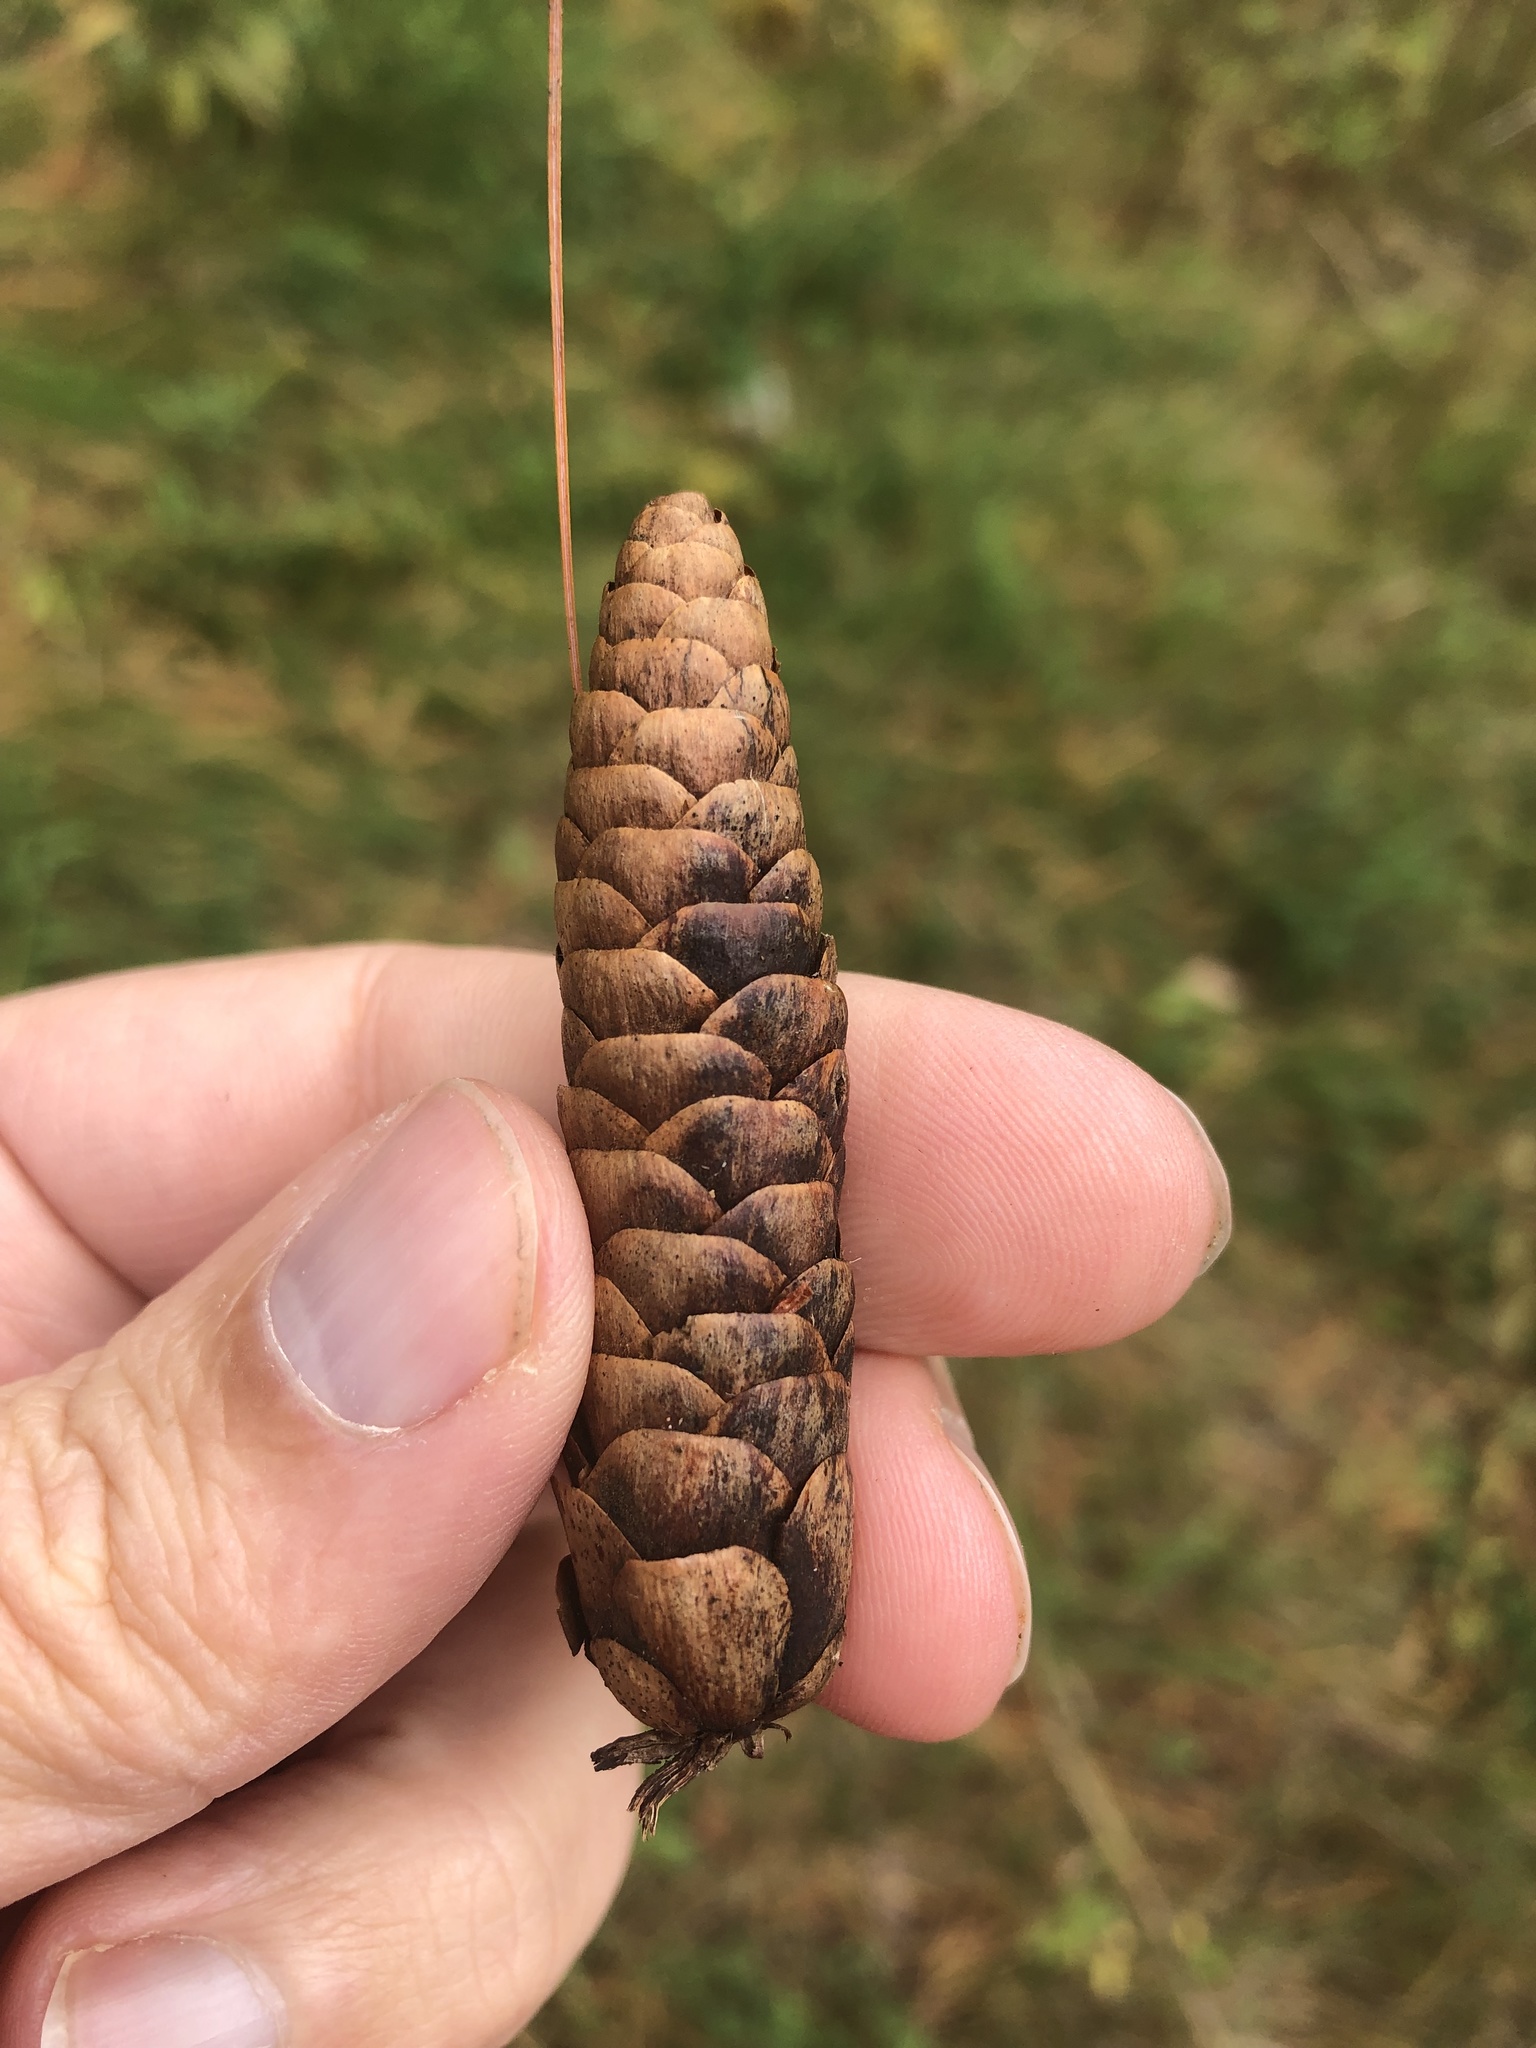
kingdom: Plantae
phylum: Tracheophyta
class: Pinopsida
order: Pinales
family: Pinaceae
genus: Picea
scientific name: Picea glauca
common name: White spruce
